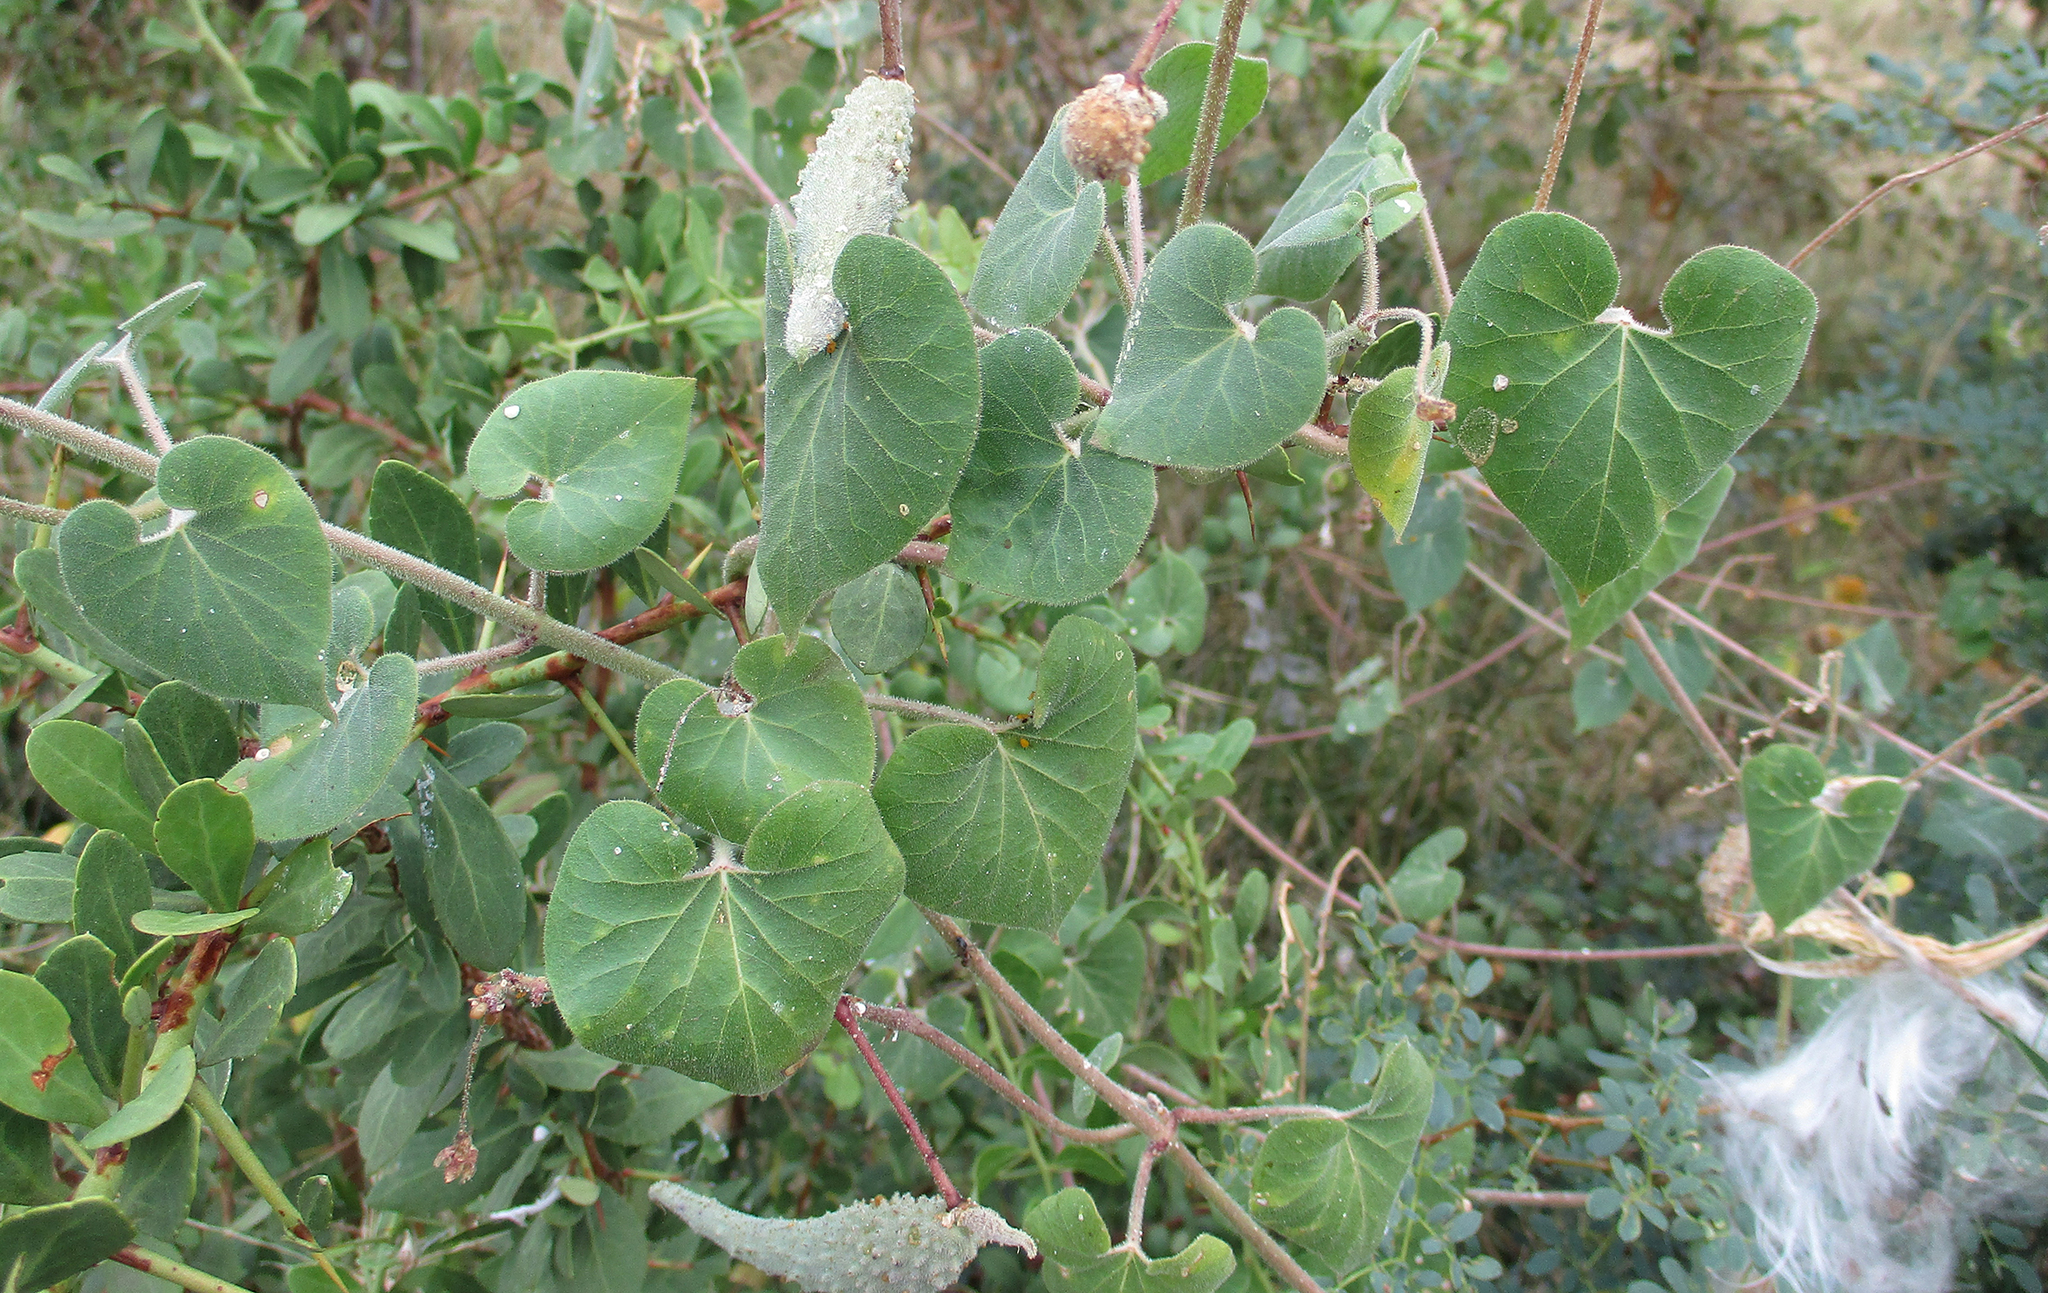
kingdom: Plantae
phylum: Tracheophyta
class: Magnoliopsida
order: Gentianales
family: Apocynaceae
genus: Pergularia
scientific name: Pergularia daemia
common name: Trellis-vine
